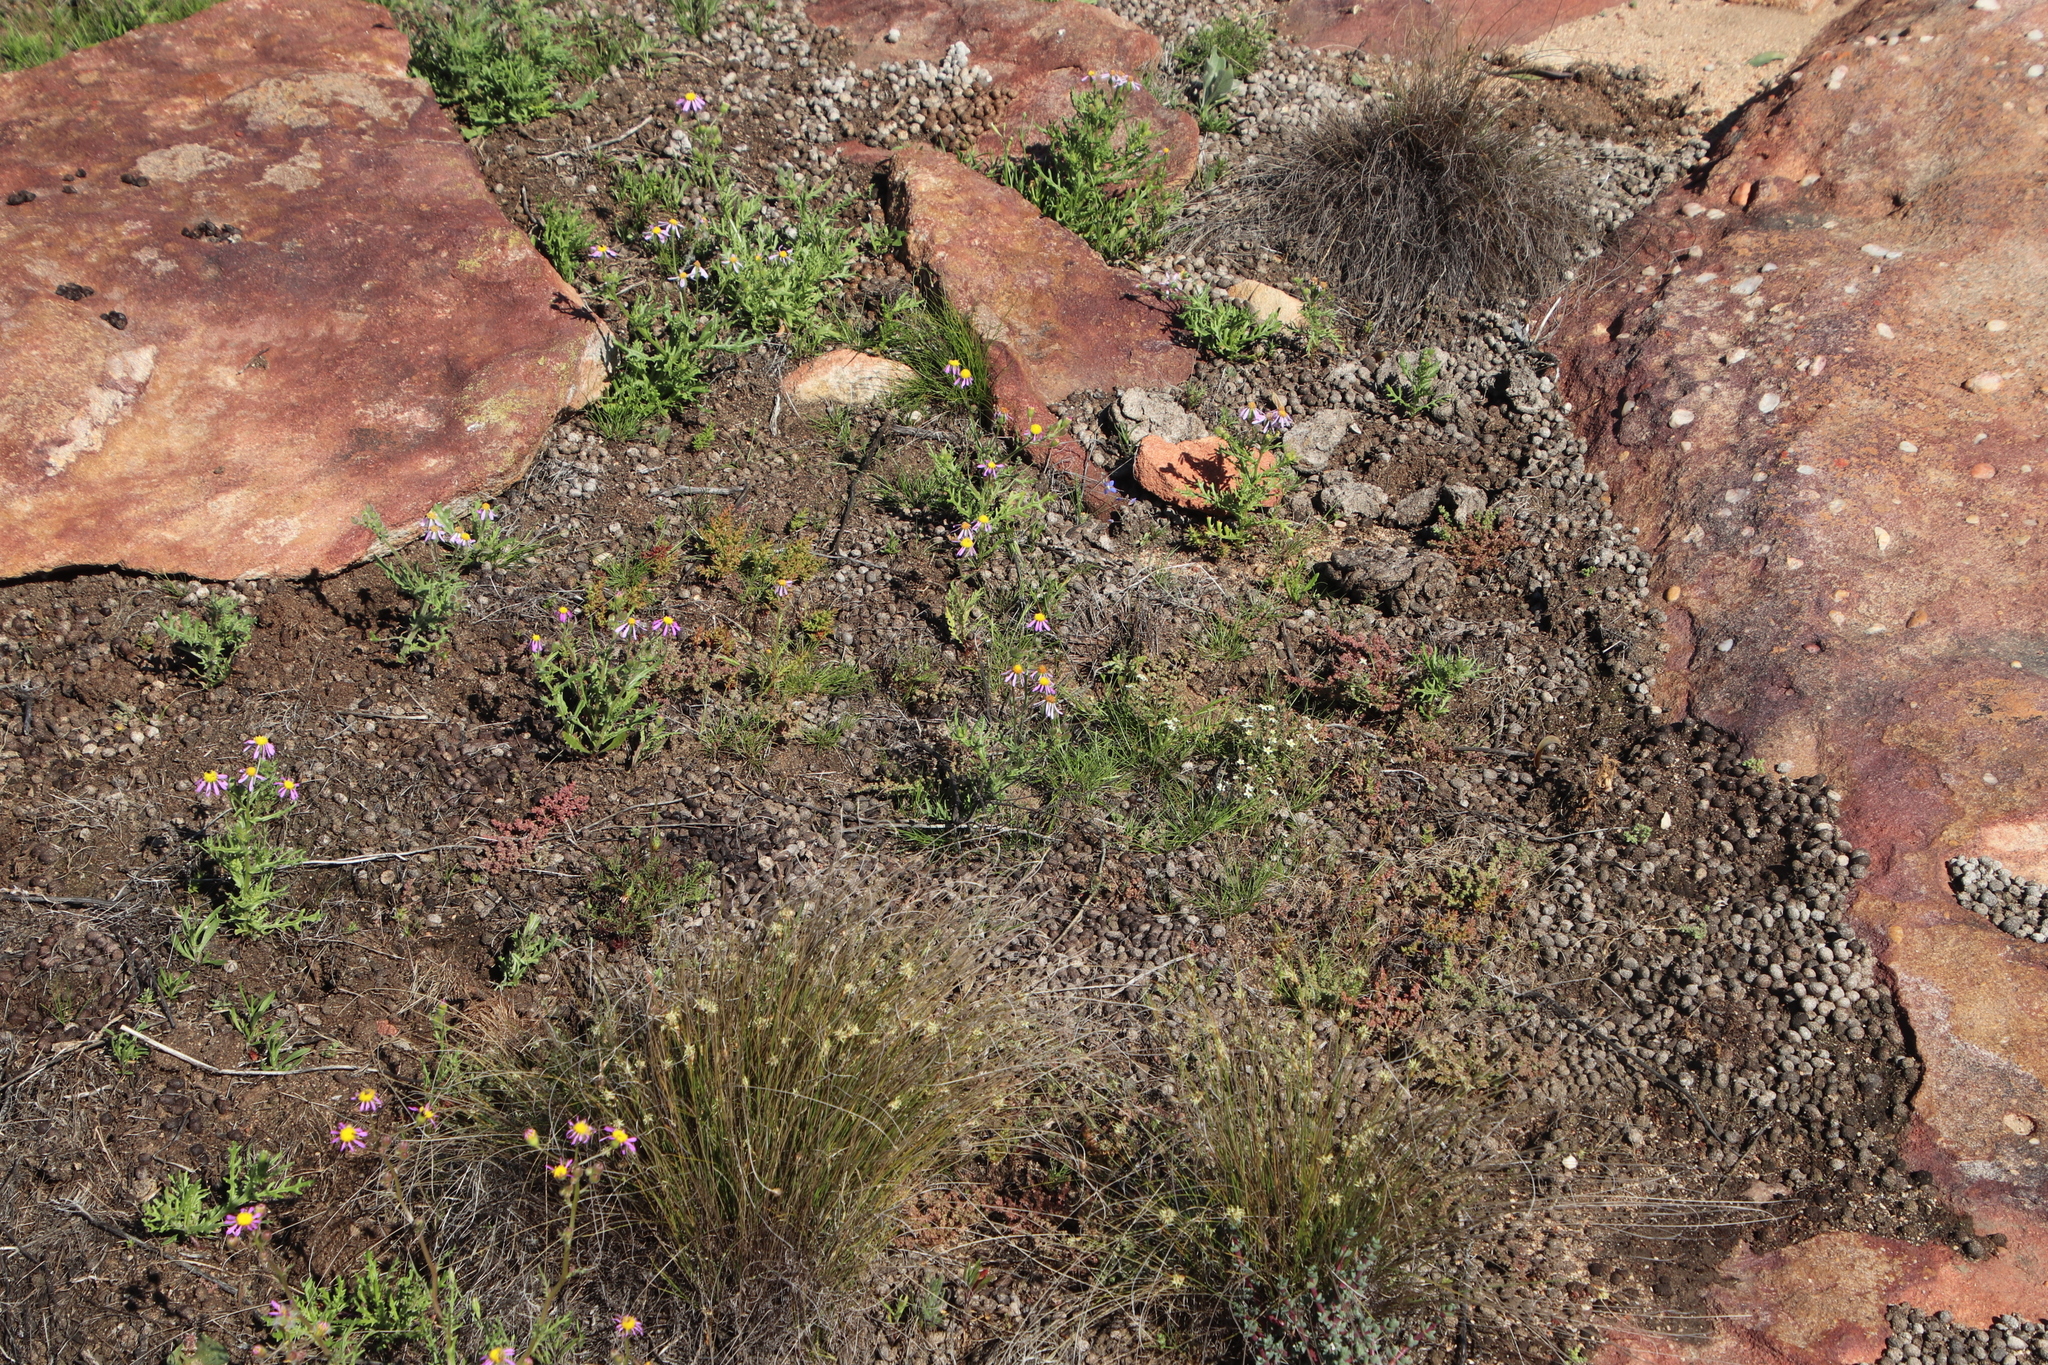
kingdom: Animalia
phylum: Chordata
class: Mammalia
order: Lagomorpha
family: Leporidae
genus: Pronolagus
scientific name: Pronolagus saundersiae
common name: Hewitt's red rock hare
